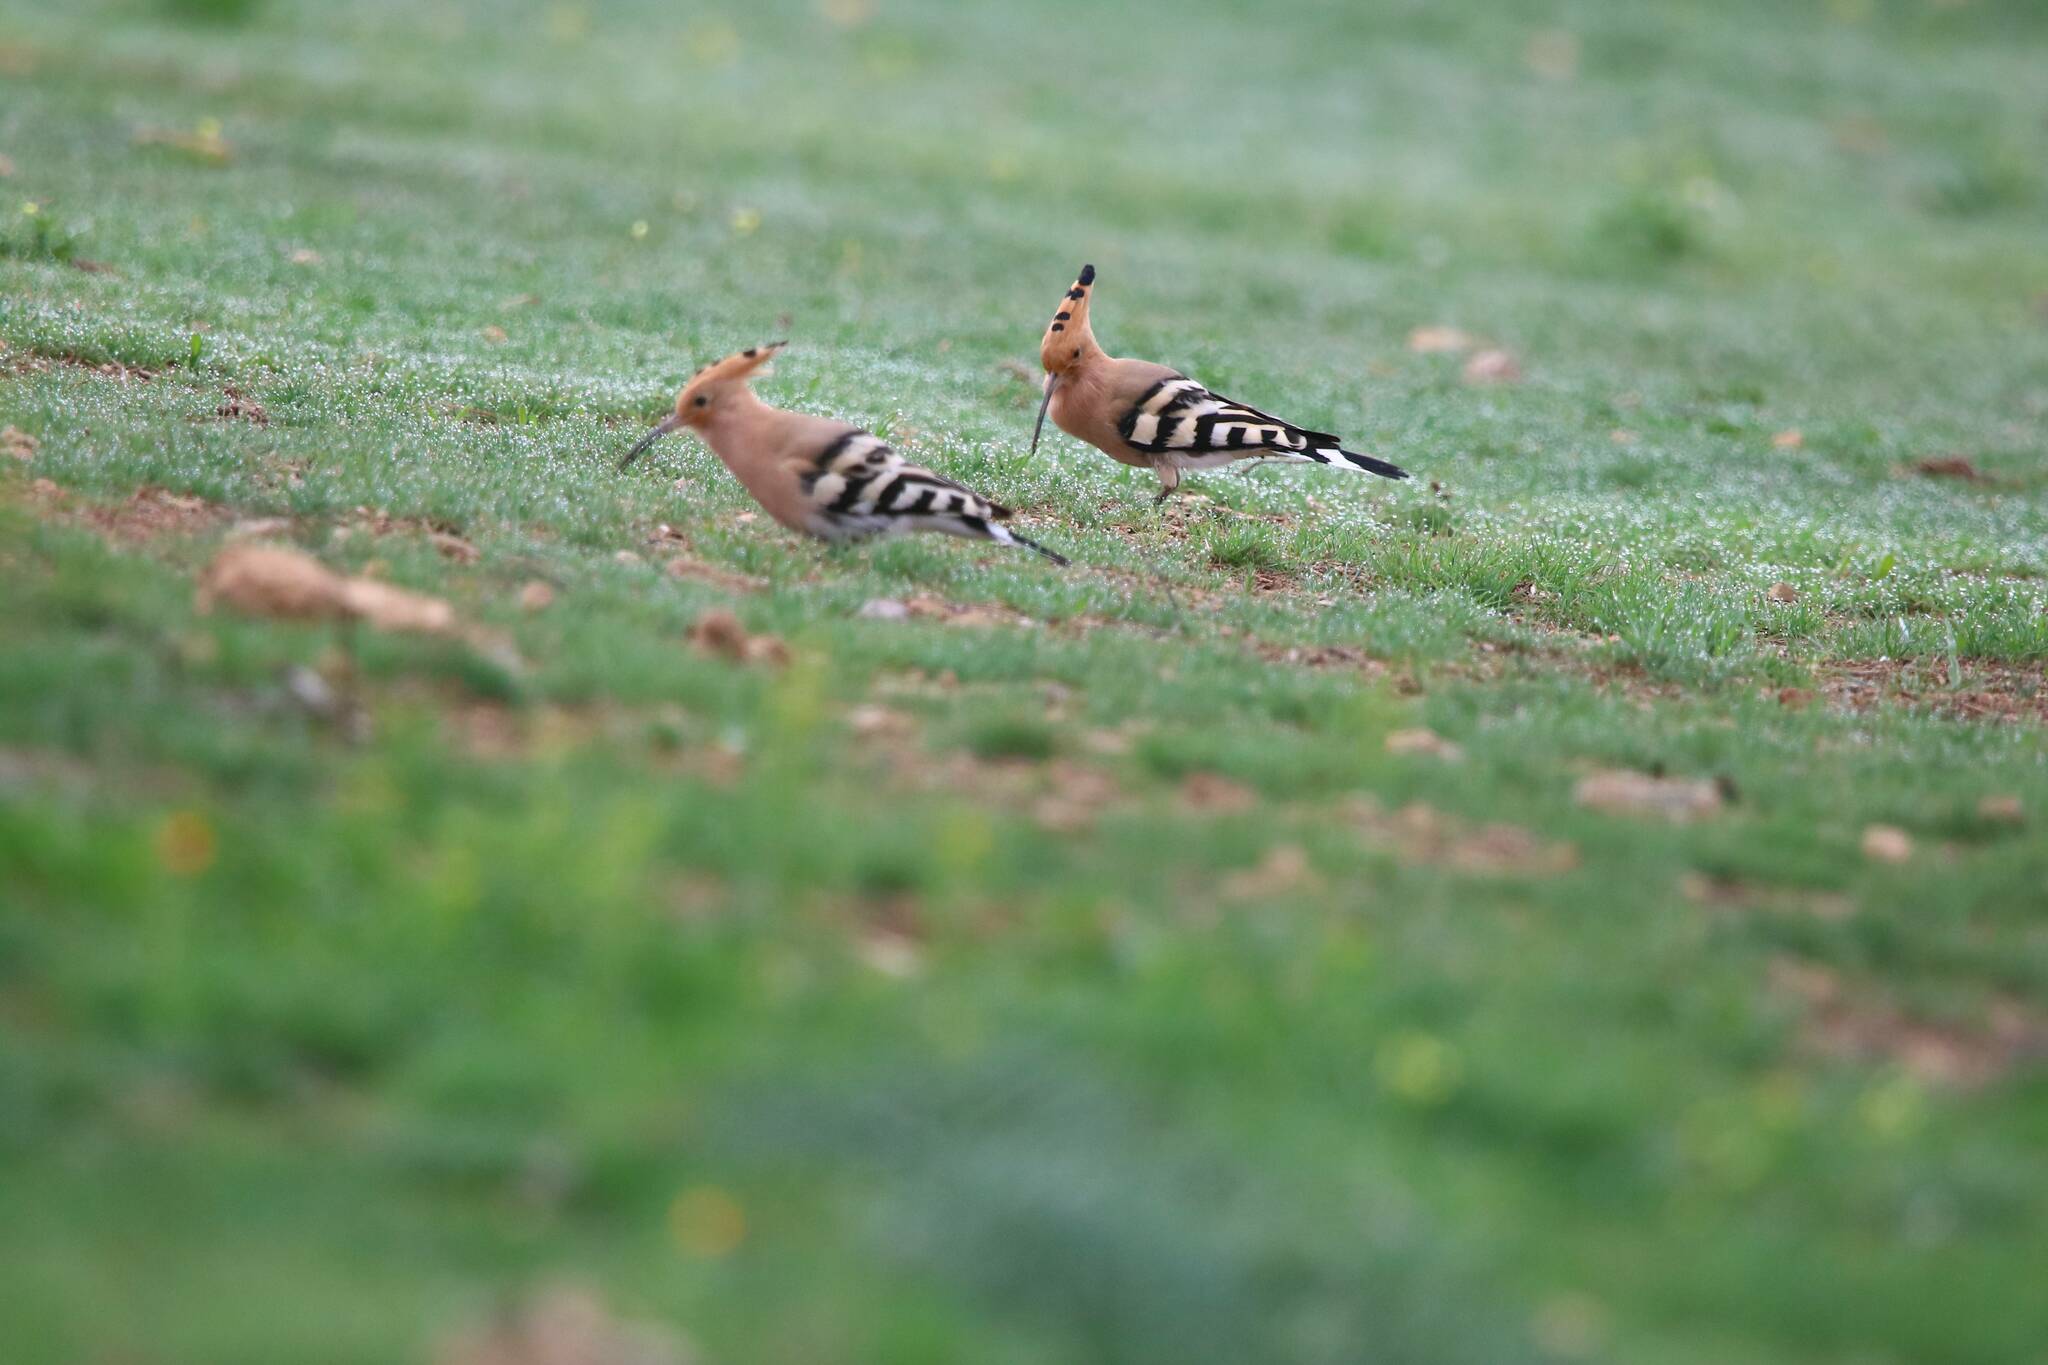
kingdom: Animalia
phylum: Chordata
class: Aves
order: Bucerotiformes
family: Upupidae
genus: Upupa
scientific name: Upupa epops
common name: Eurasian hoopoe
